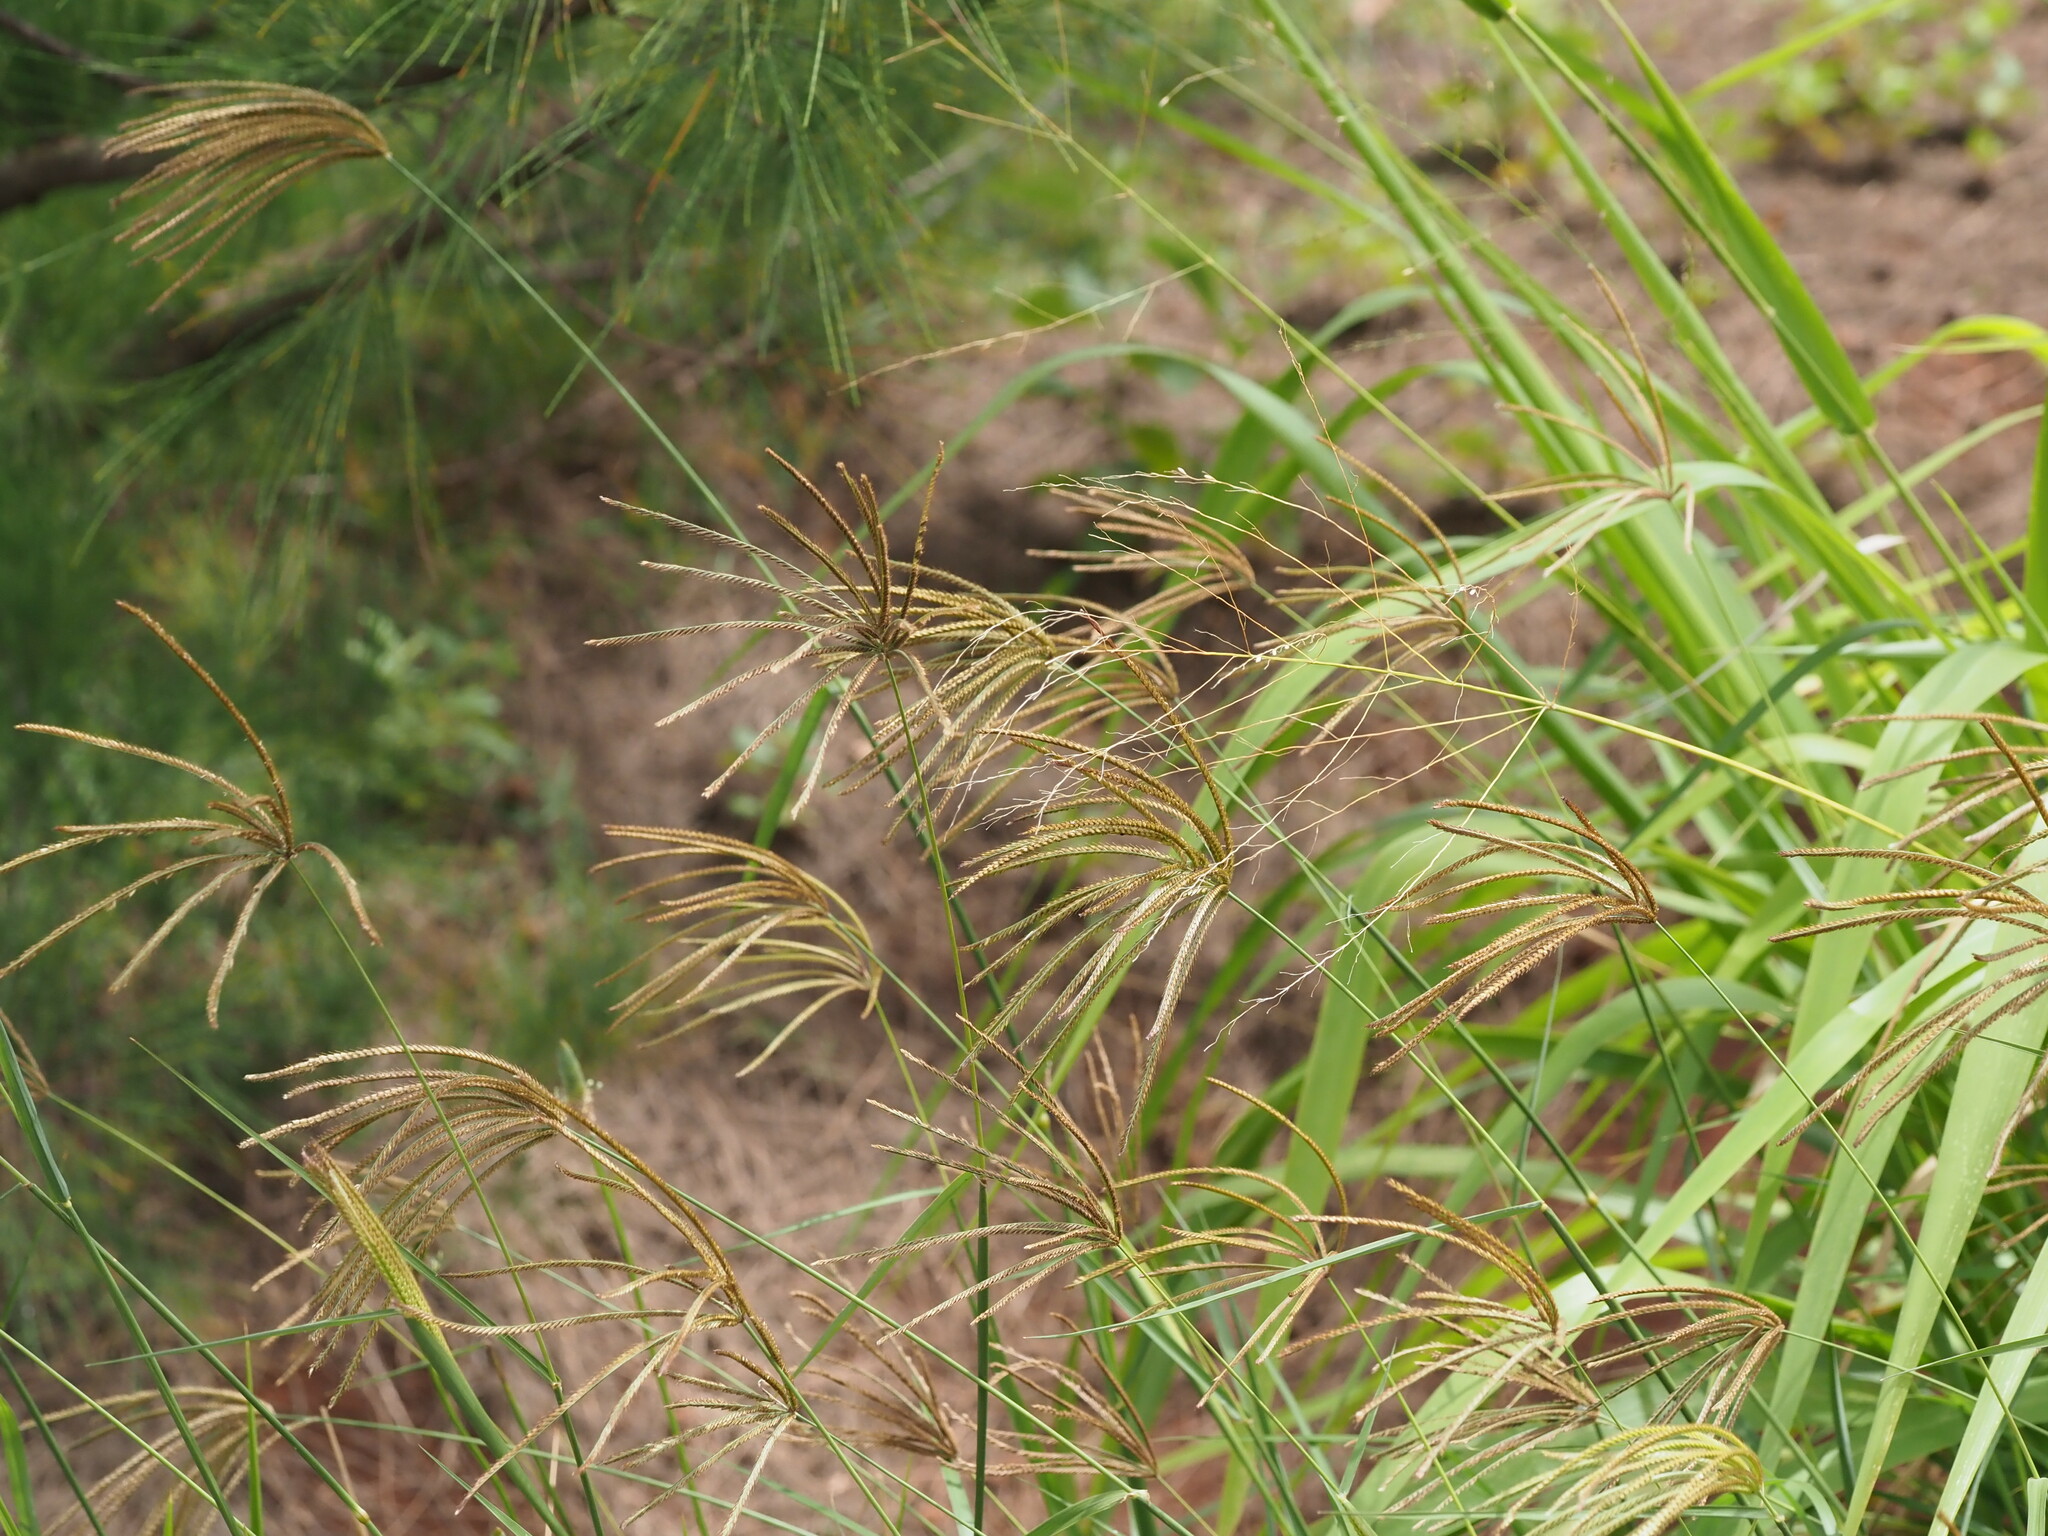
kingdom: Plantae
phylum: Tracheophyta
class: Liliopsida
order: Poales
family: Poaceae
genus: Chloris
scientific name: Chloris gayana
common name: Rhodes grass
